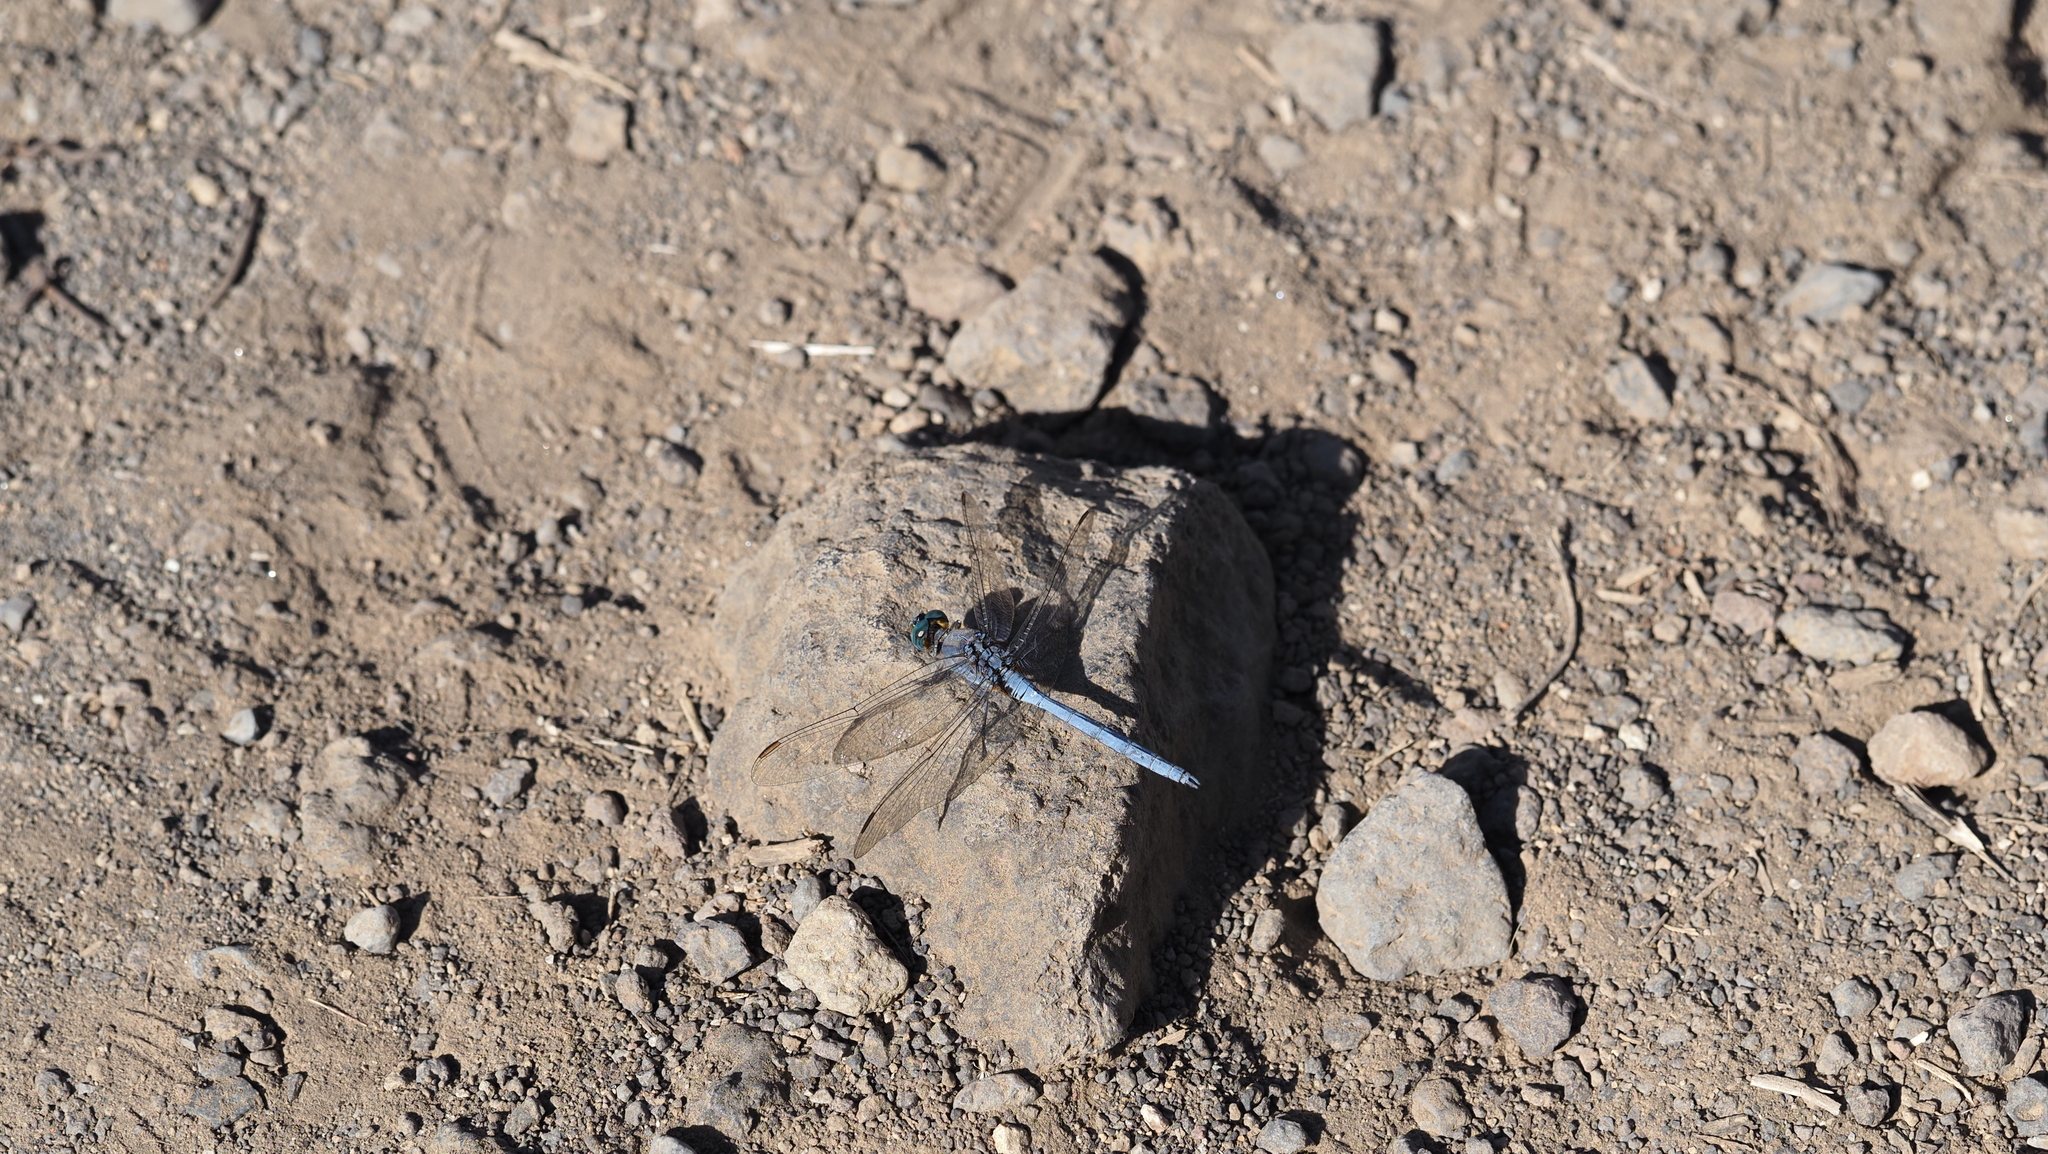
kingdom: Animalia
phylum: Arthropoda
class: Insecta
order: Odonata
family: Libellulidae
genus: Orthetrum
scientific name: Orthetrum chrysostigma
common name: Epaulet skimmer
